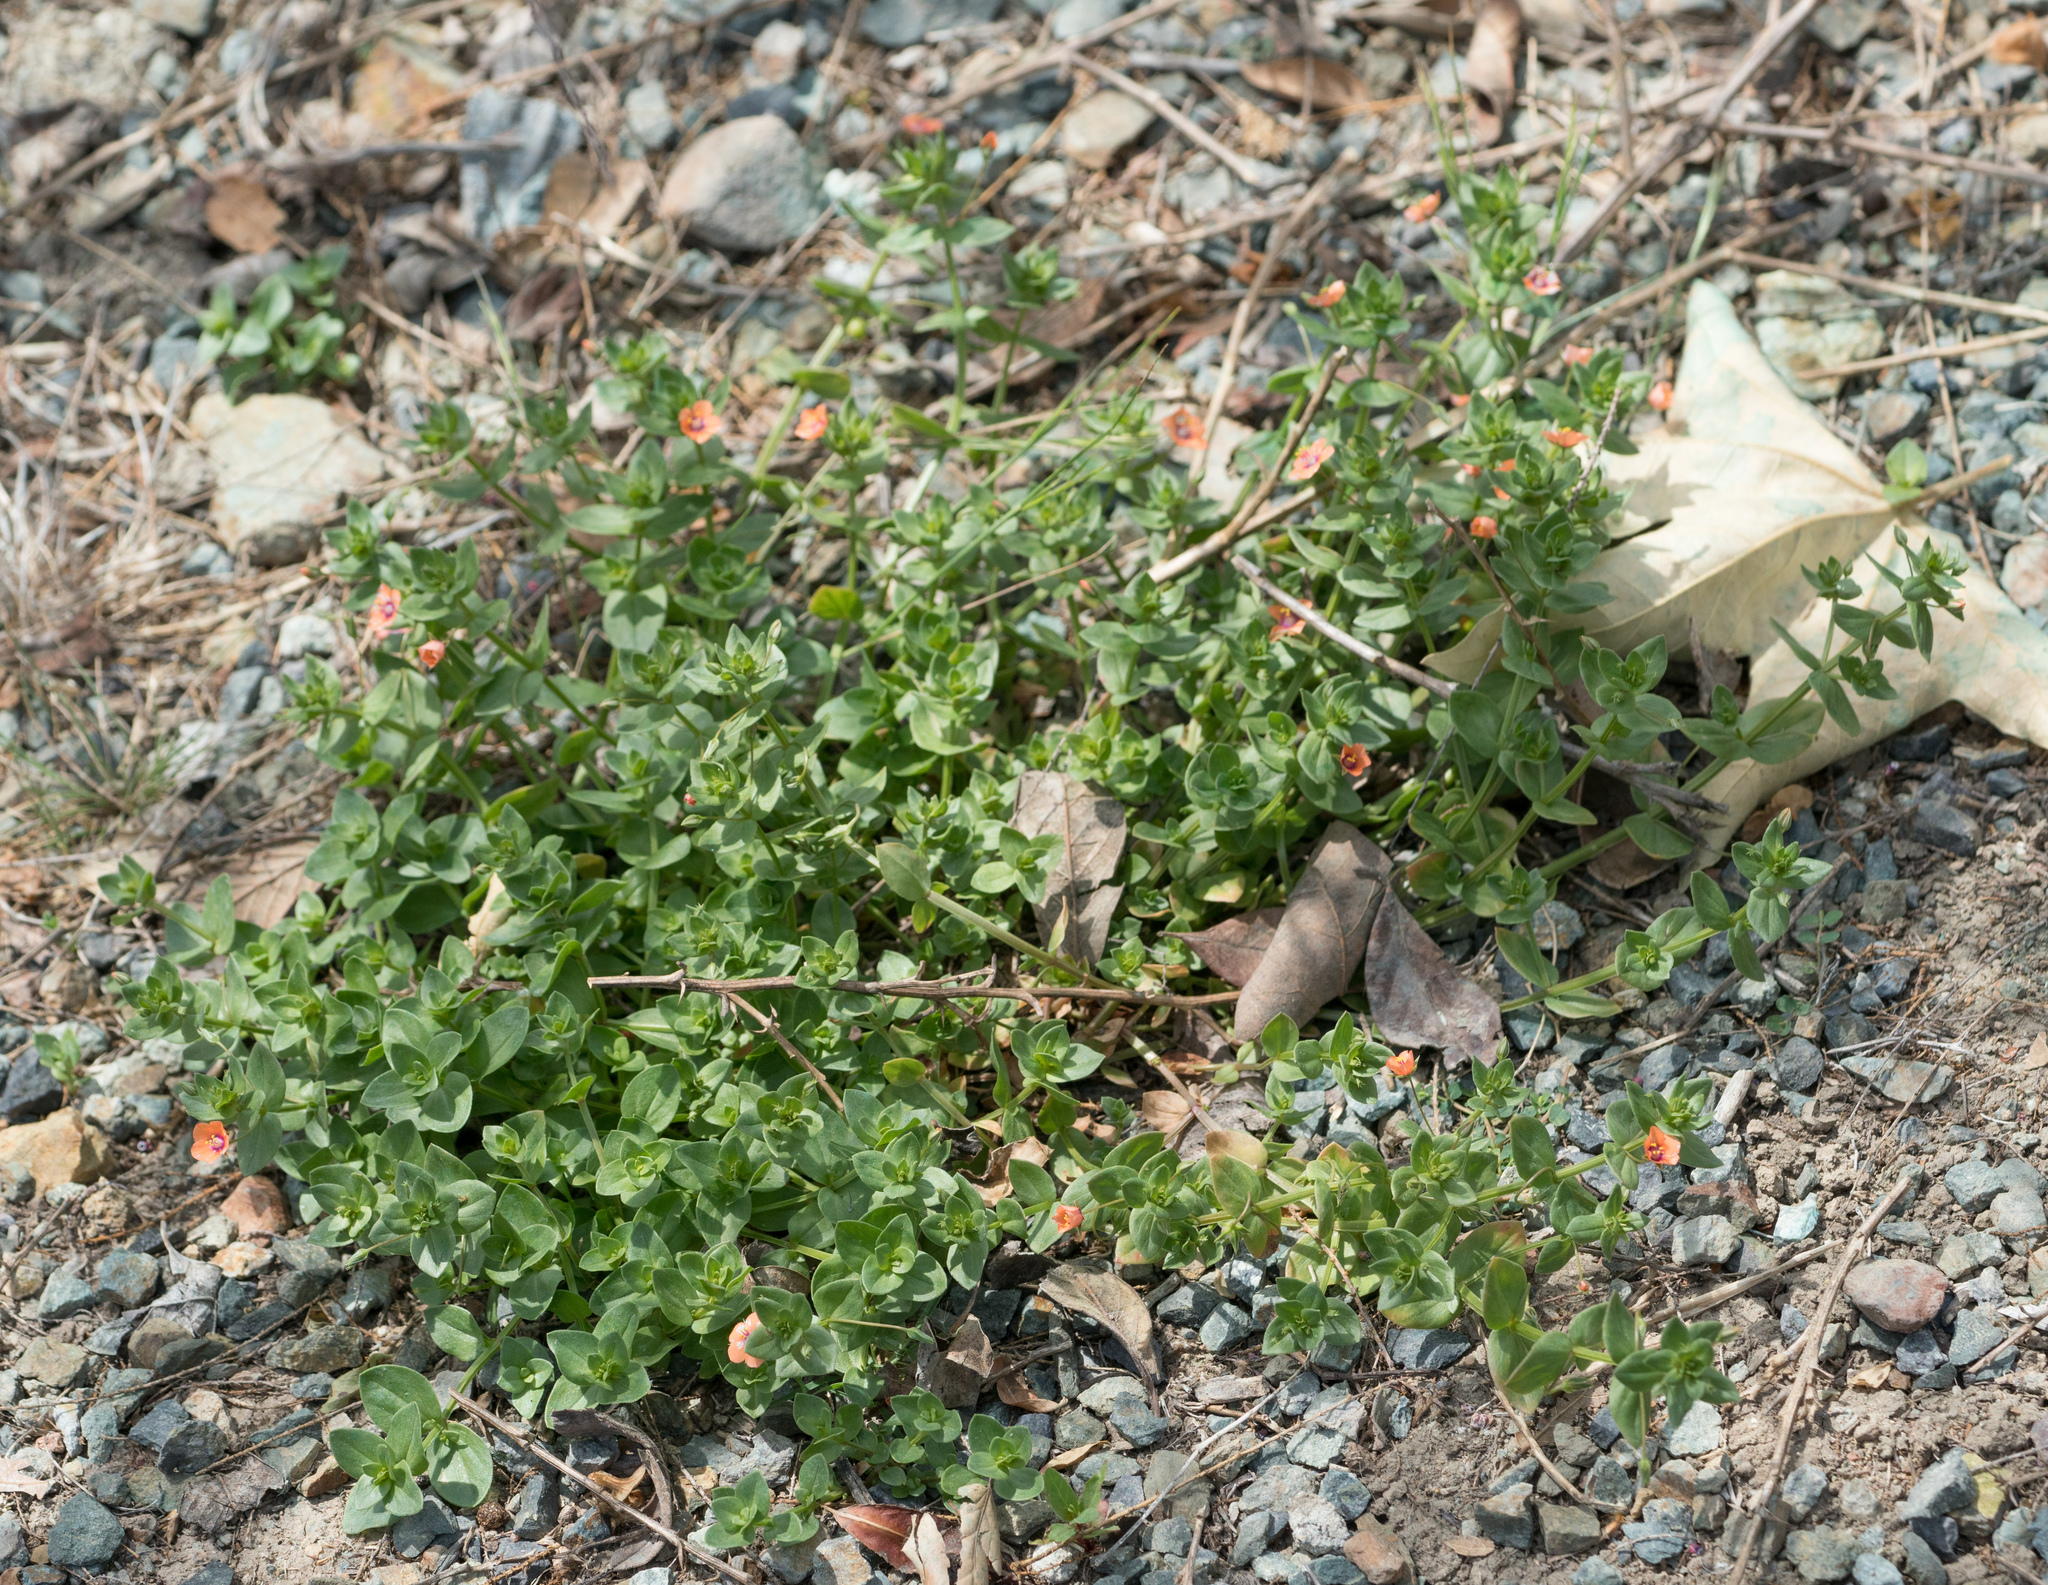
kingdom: Plantae
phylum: Tracheophyta
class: Magnoliopsida
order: Ericales
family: Primulaceae
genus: Lysimachia
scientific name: Lysimachia arvensis
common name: Scarlet pimpernel
